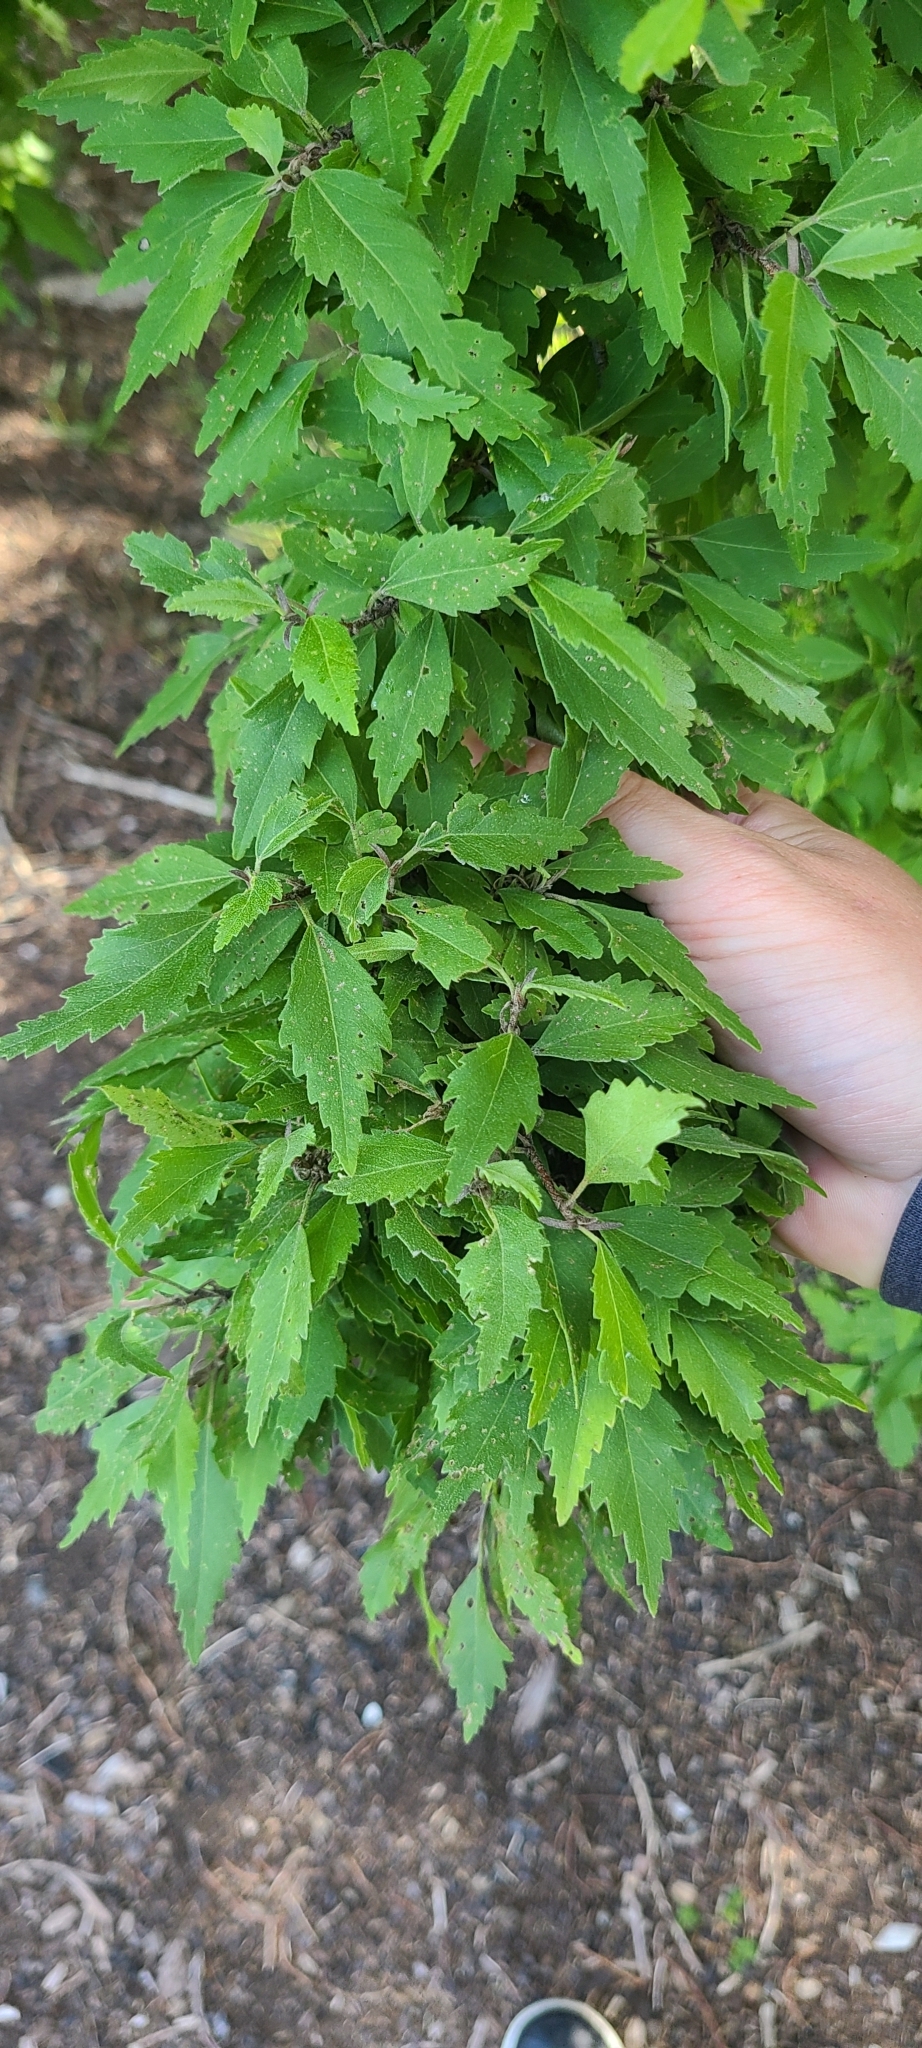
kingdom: Plantae
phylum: Tracheophyta
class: Magnoliopsida
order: Malvales
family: Malvaceae
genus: Plagianthus
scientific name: Plagianthus regius
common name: Manatu
